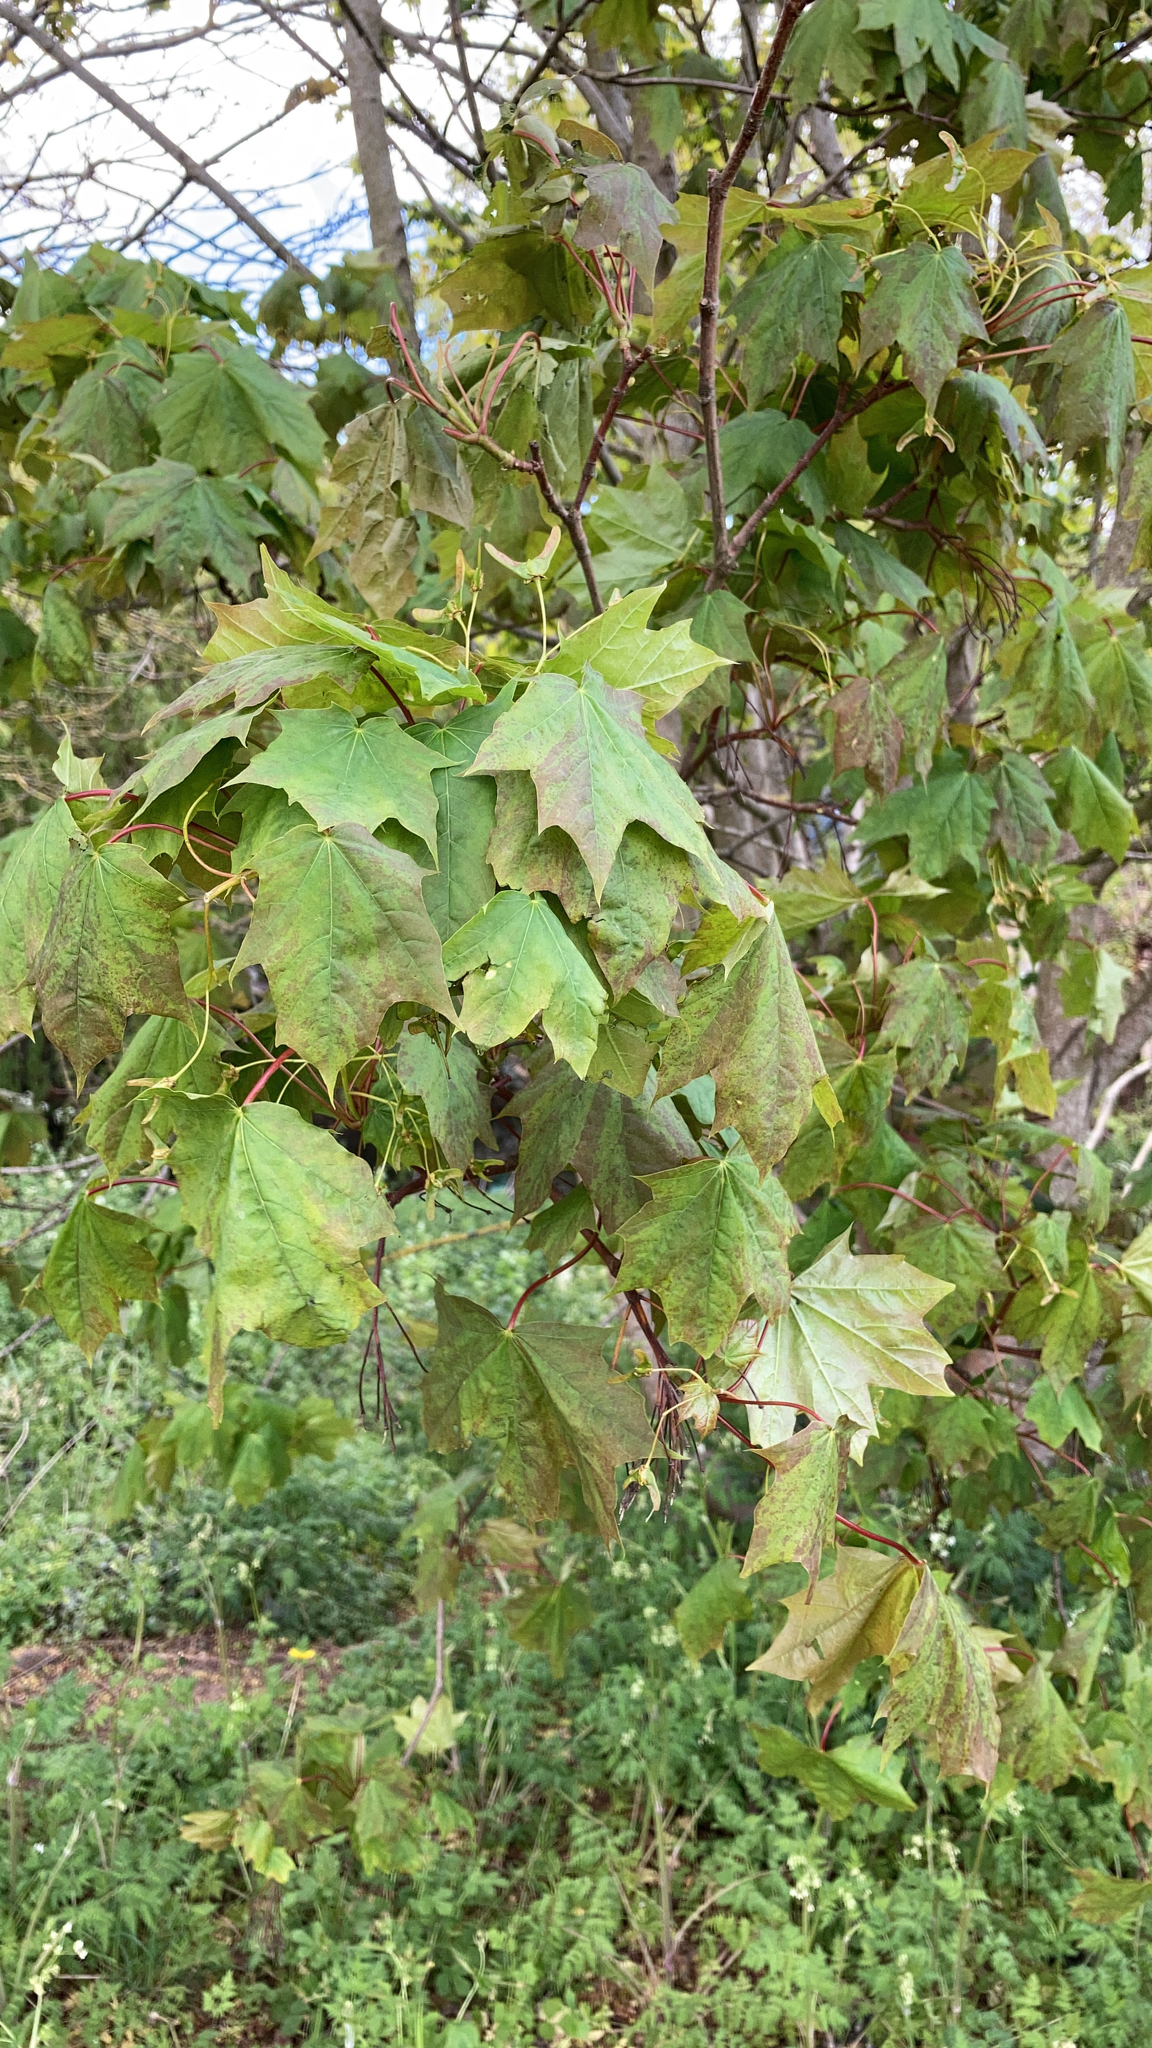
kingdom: Plantae
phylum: Tracheophyta
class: Magnoliopsida
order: Sapindales
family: Sapindaceae
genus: Acer
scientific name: Acer platanoides
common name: Norway maple
